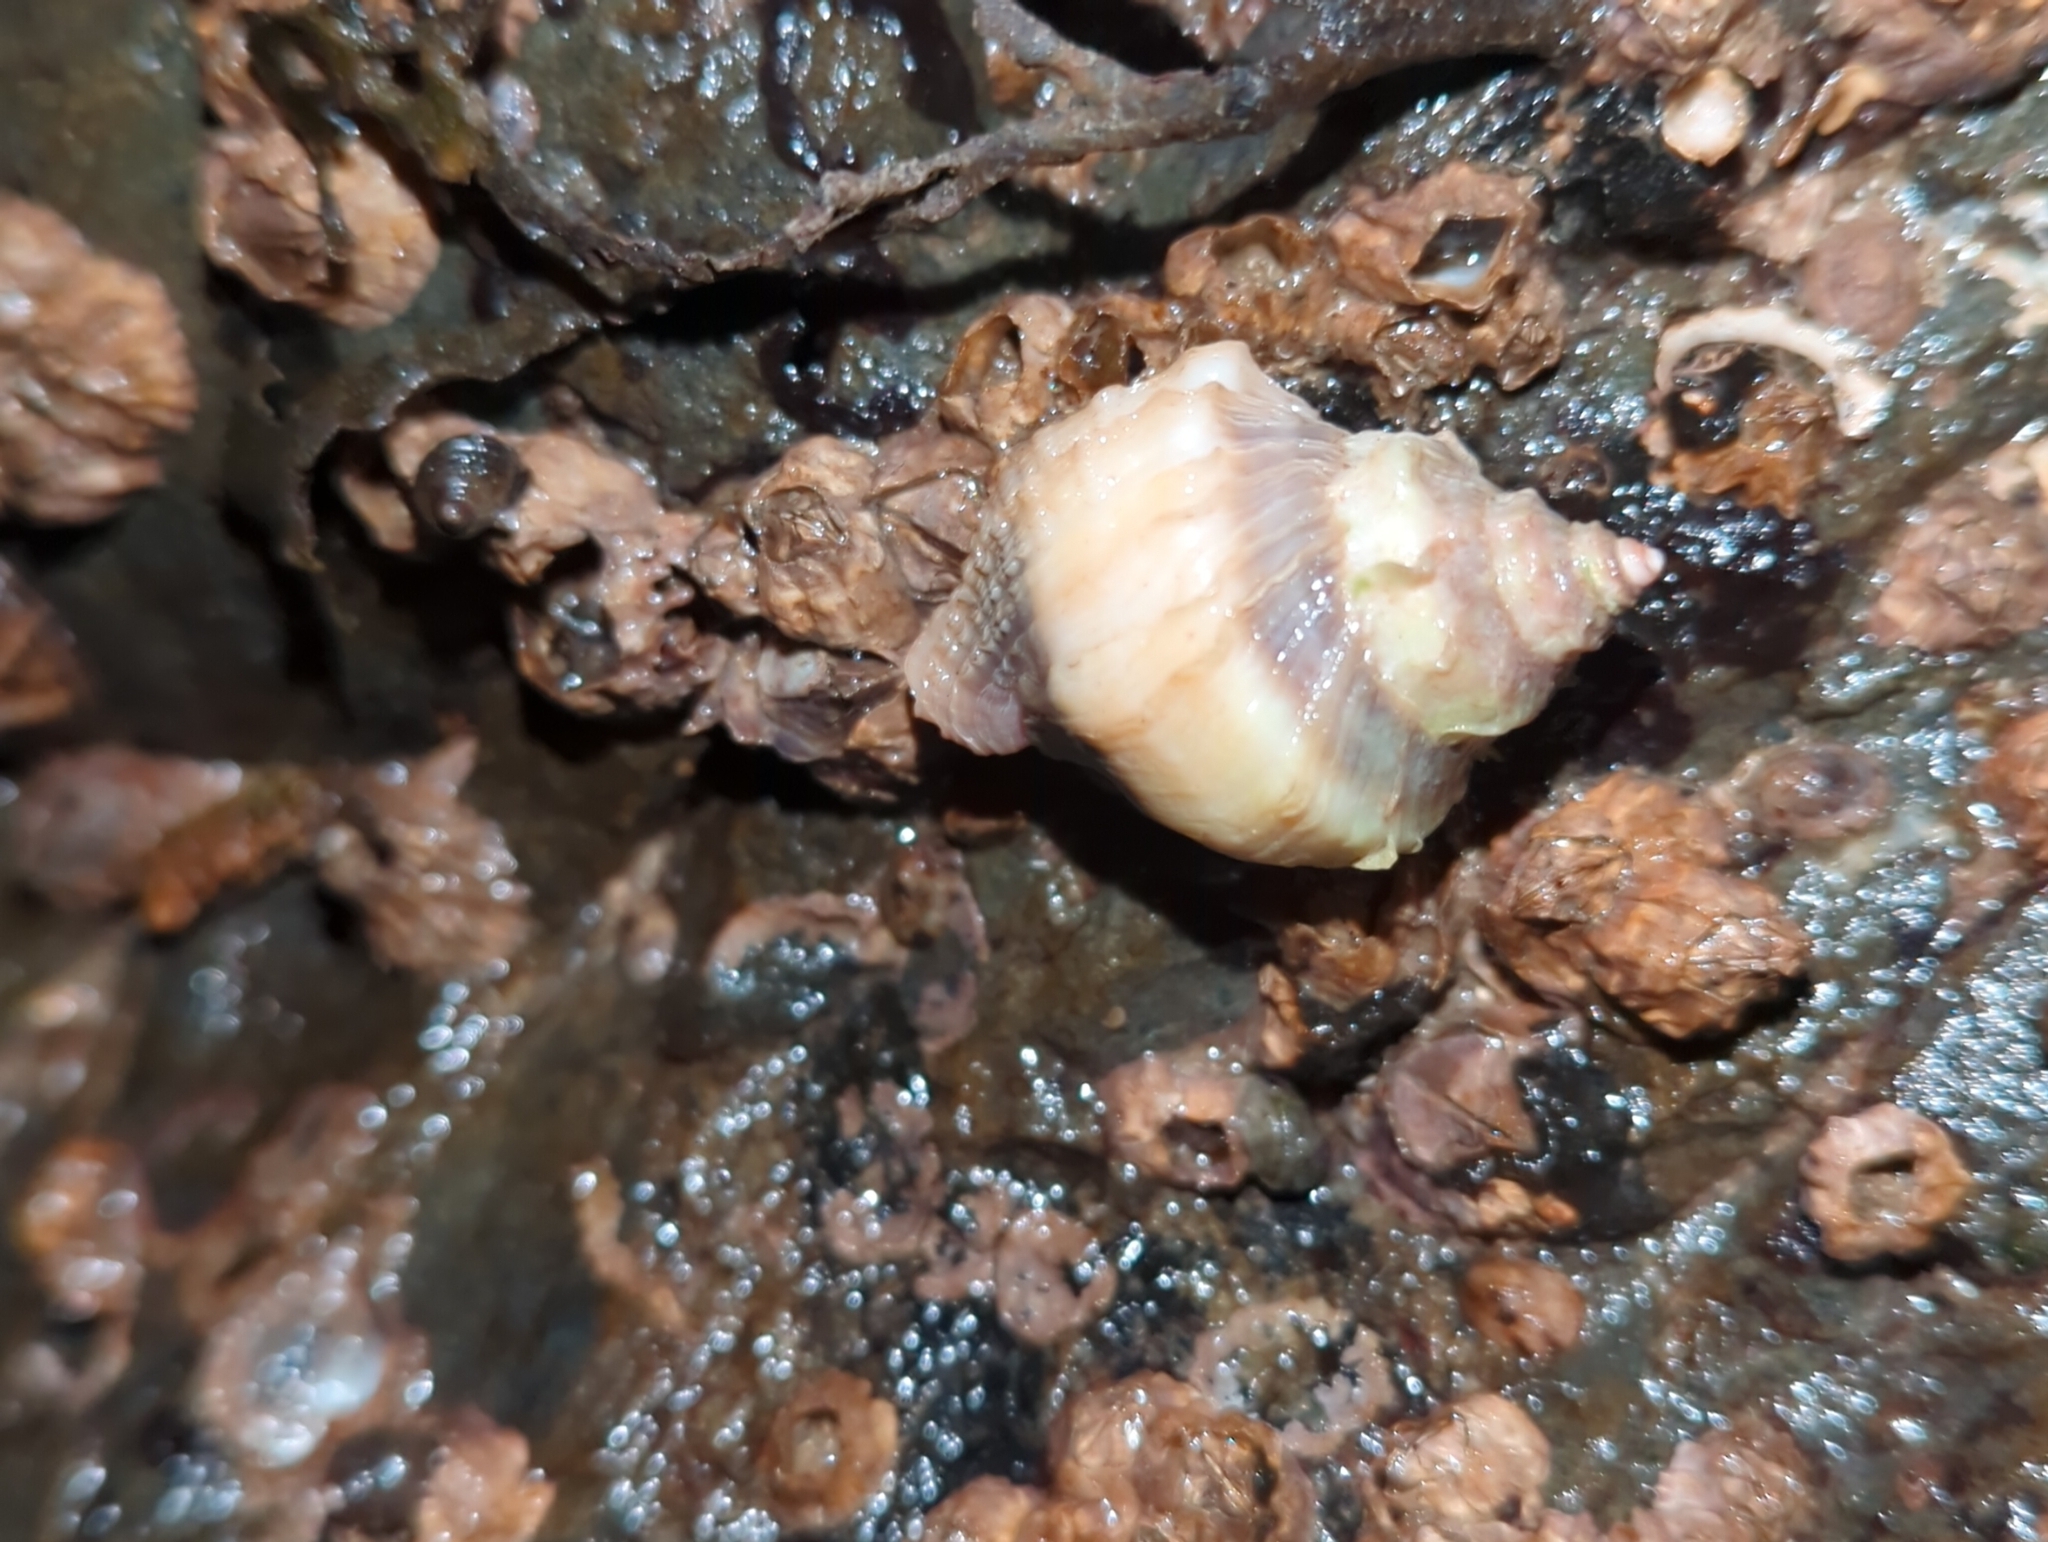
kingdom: Animalia
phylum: Mollusca
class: Gastropoda
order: Neogastropoda
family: Muricidae
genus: Nucella
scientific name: Nucella lamellosa
